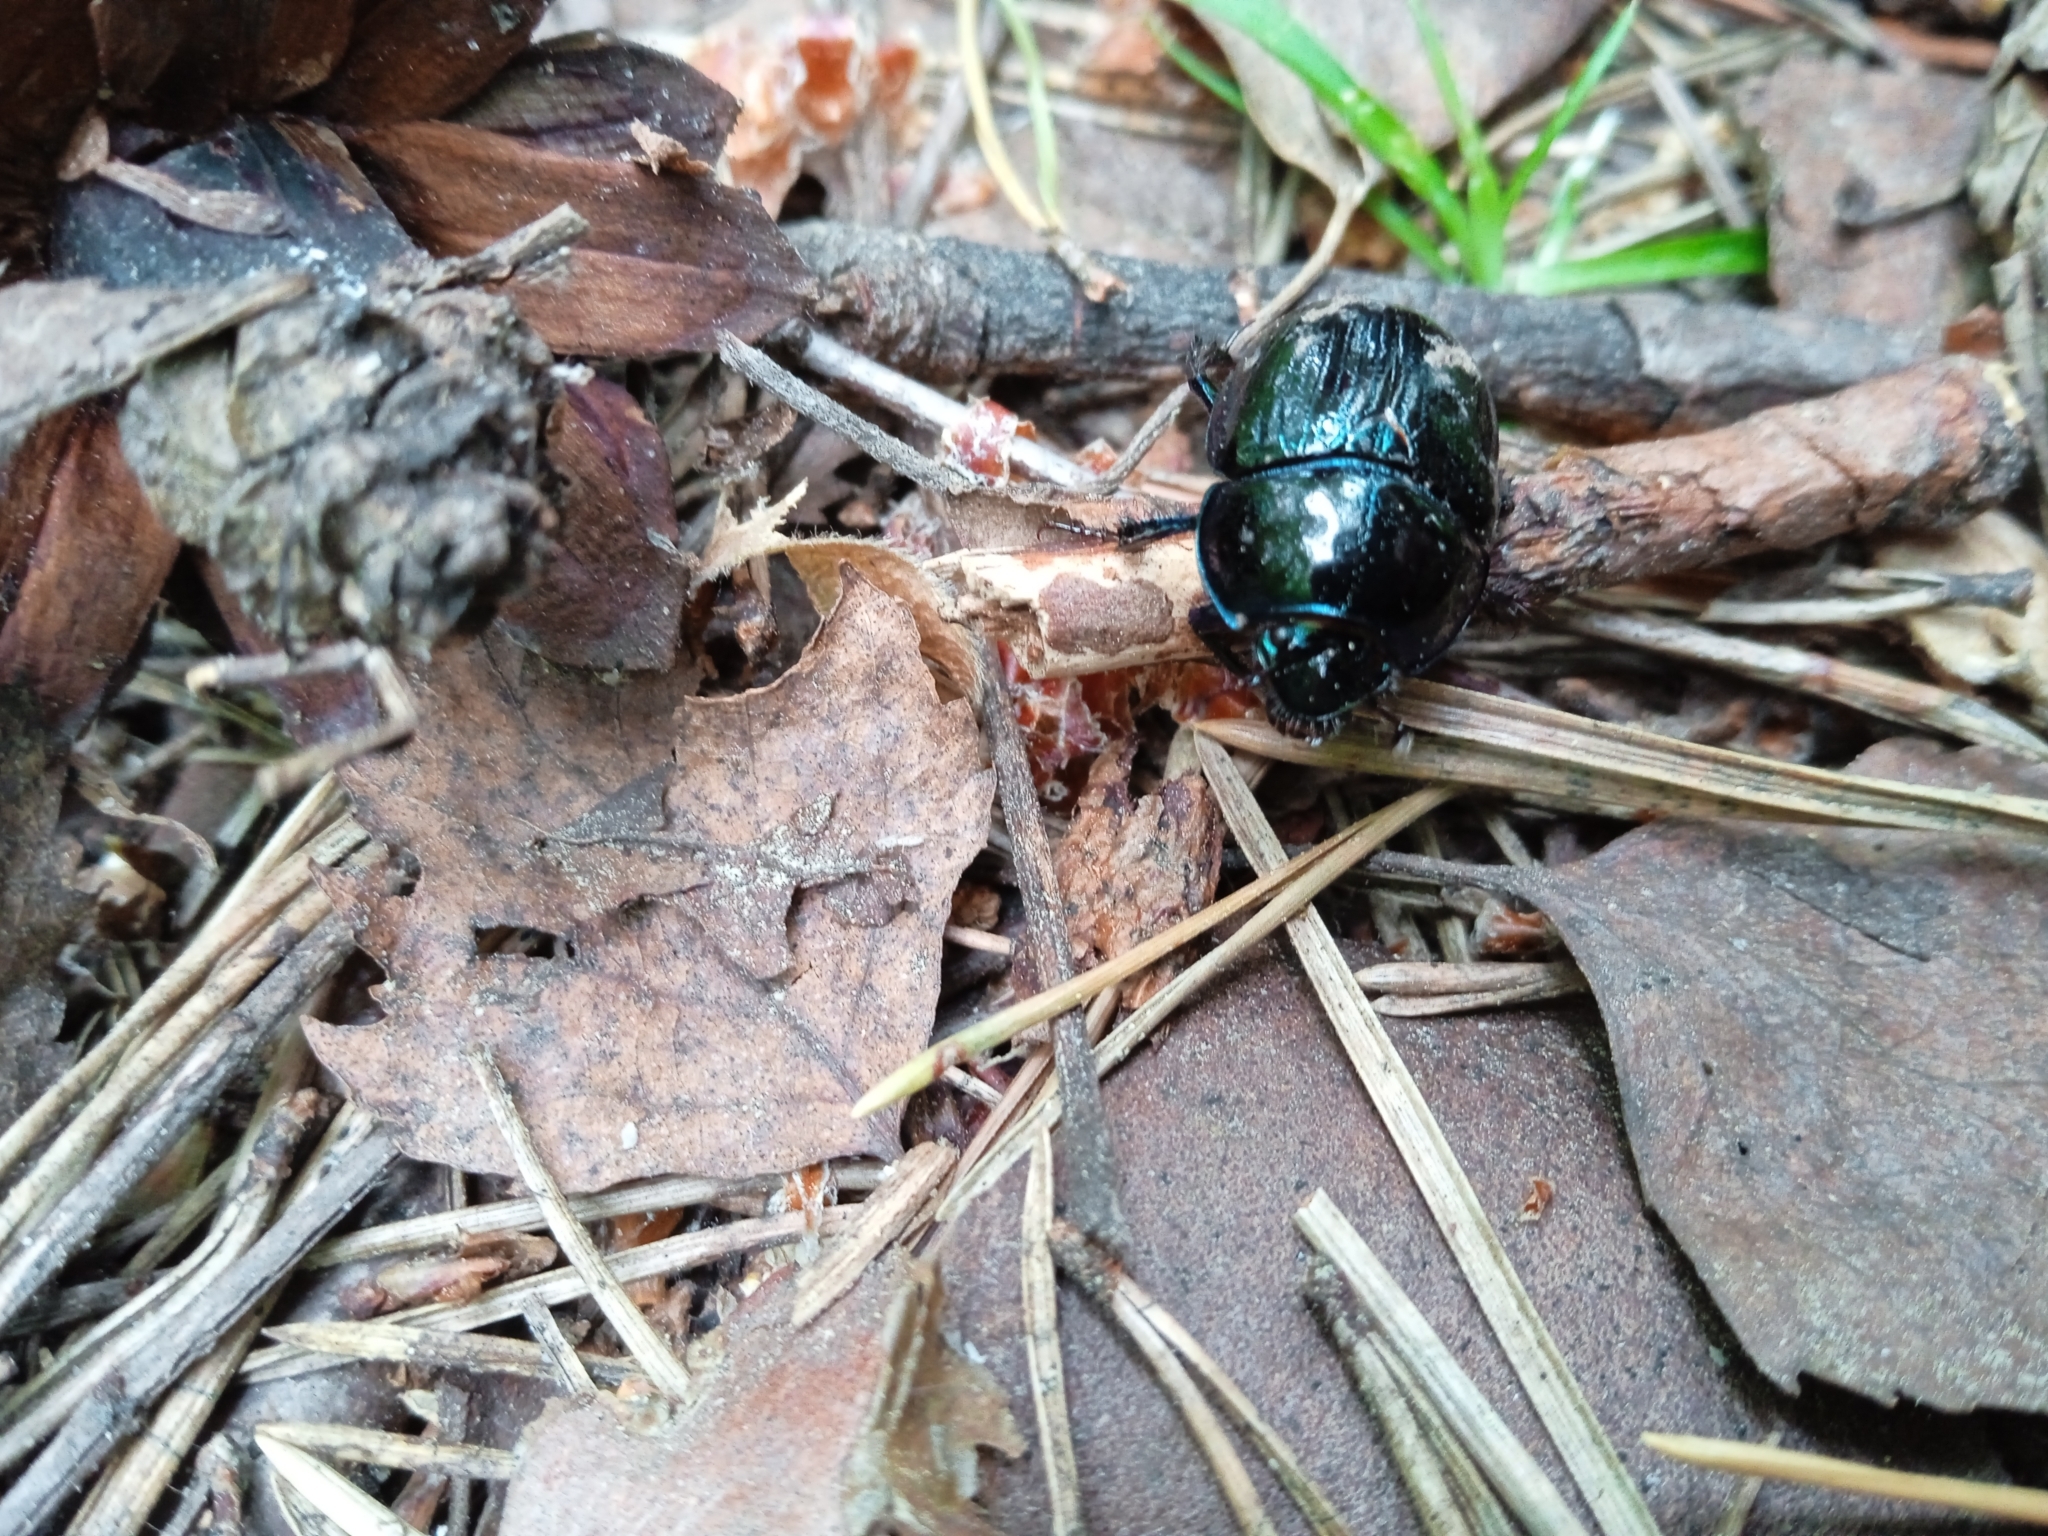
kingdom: Animalia
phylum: Arthropoda
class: Insecta
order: Coleoptera
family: Geotrupidae
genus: Anoplotrupes
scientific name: Anoplotrupes stercorosus
